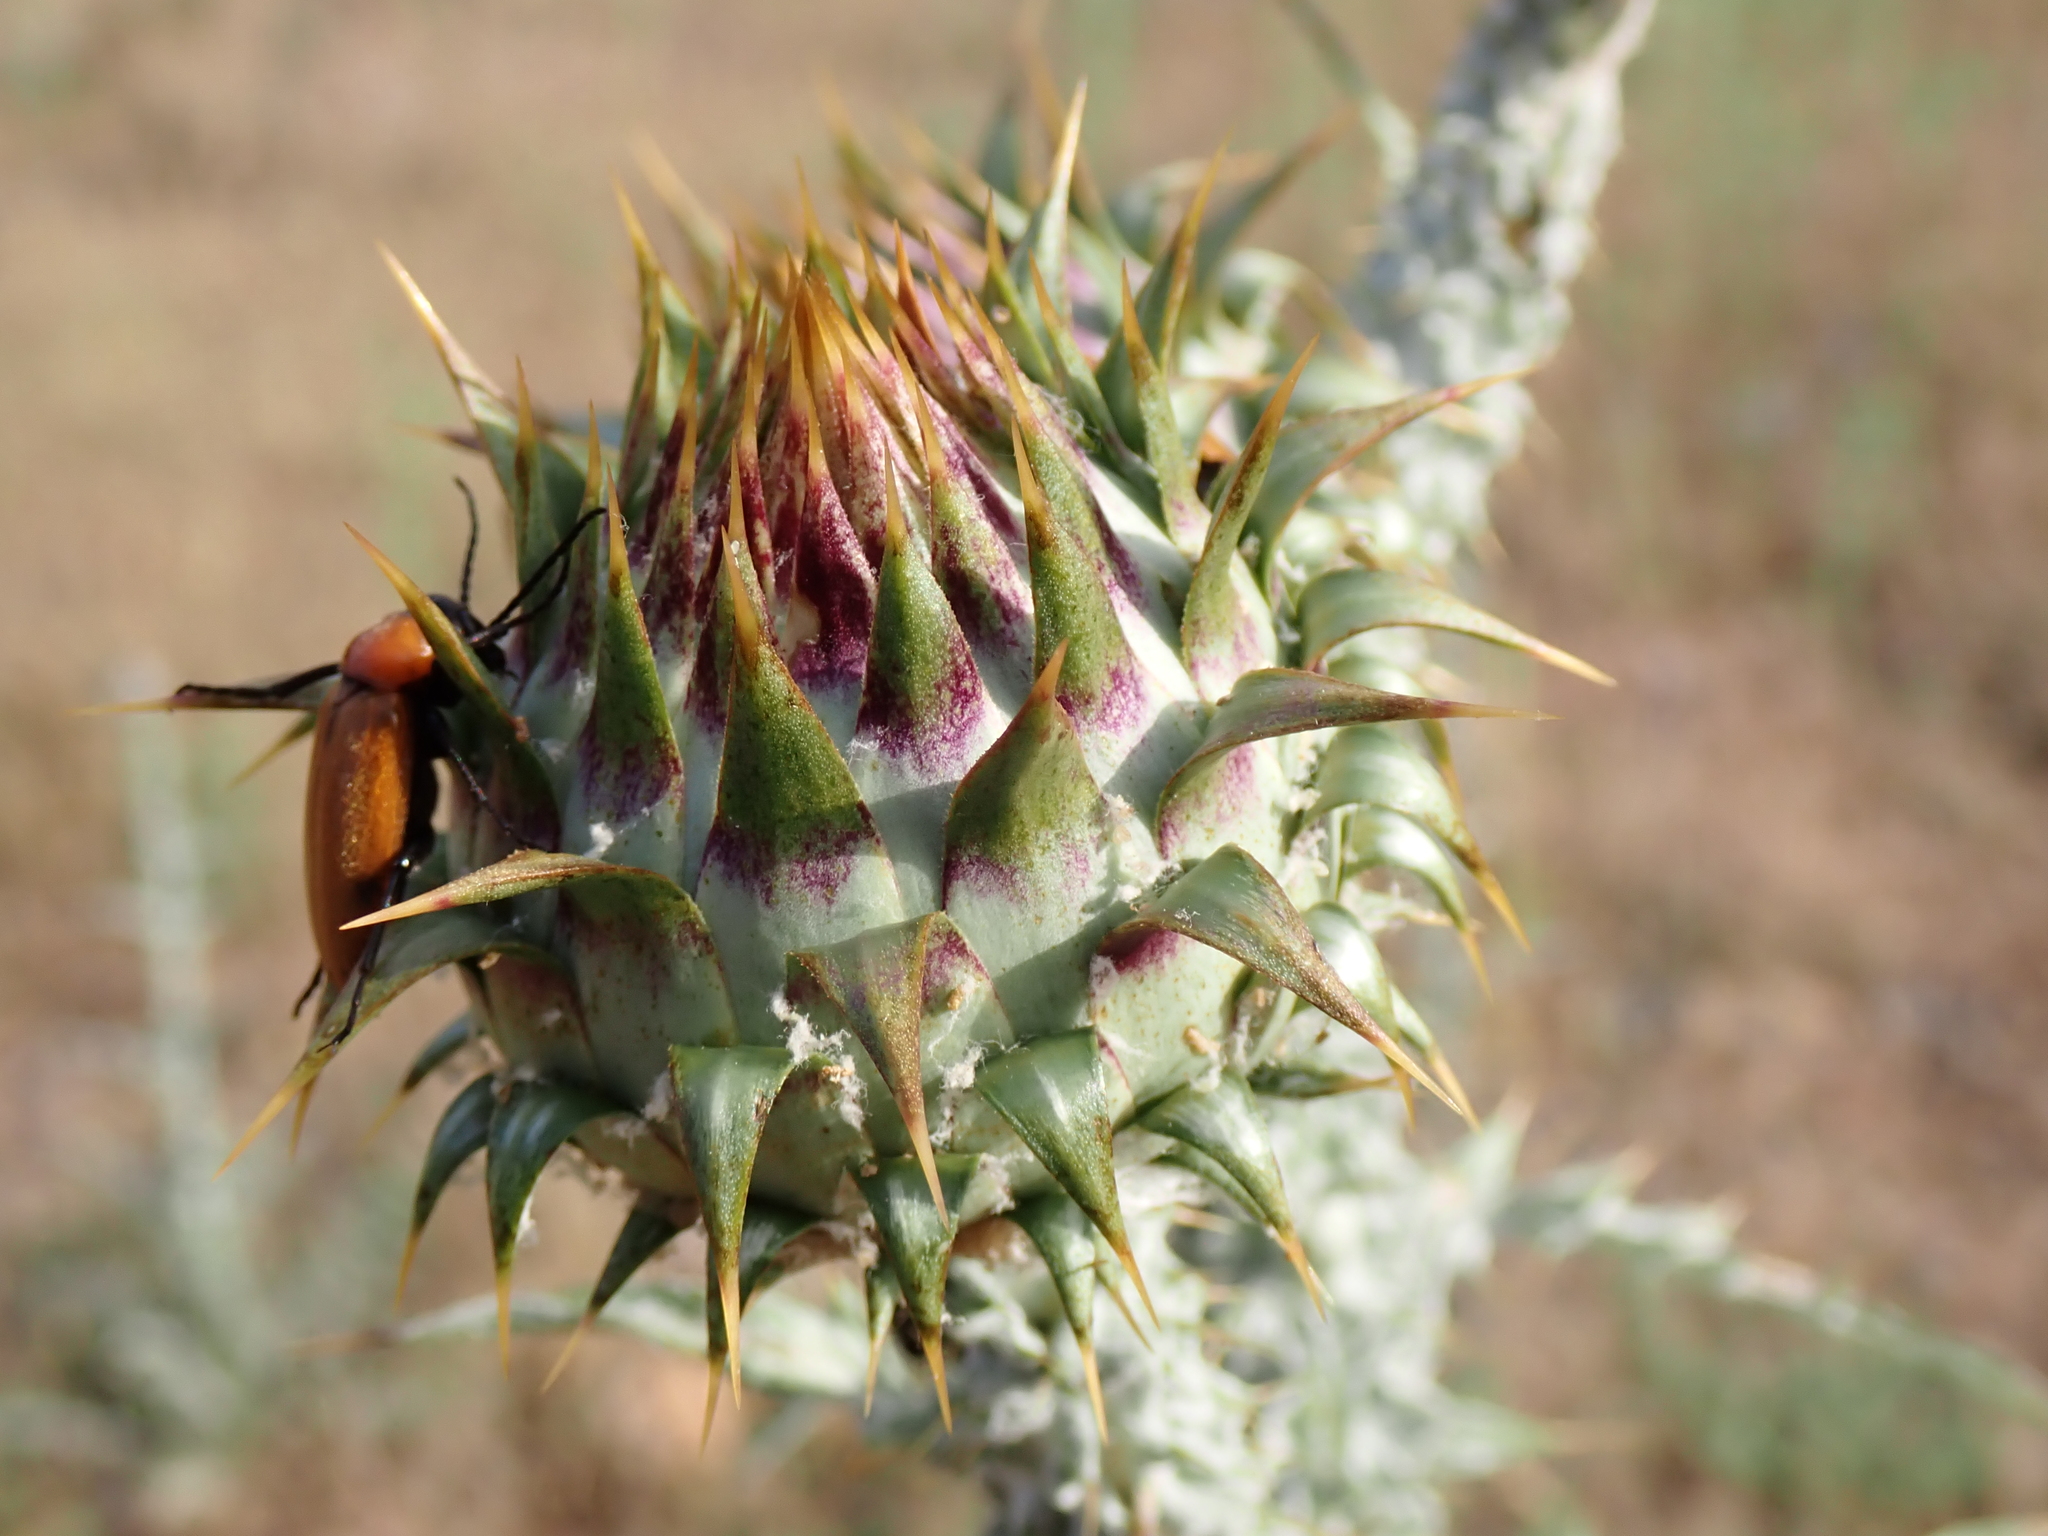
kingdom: Plantae
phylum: Tracheophyta
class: Magnoliopsida
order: Asterales
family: Asteraceae
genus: Onopordum
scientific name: Onopordum illyricum
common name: Illyrian thistle
